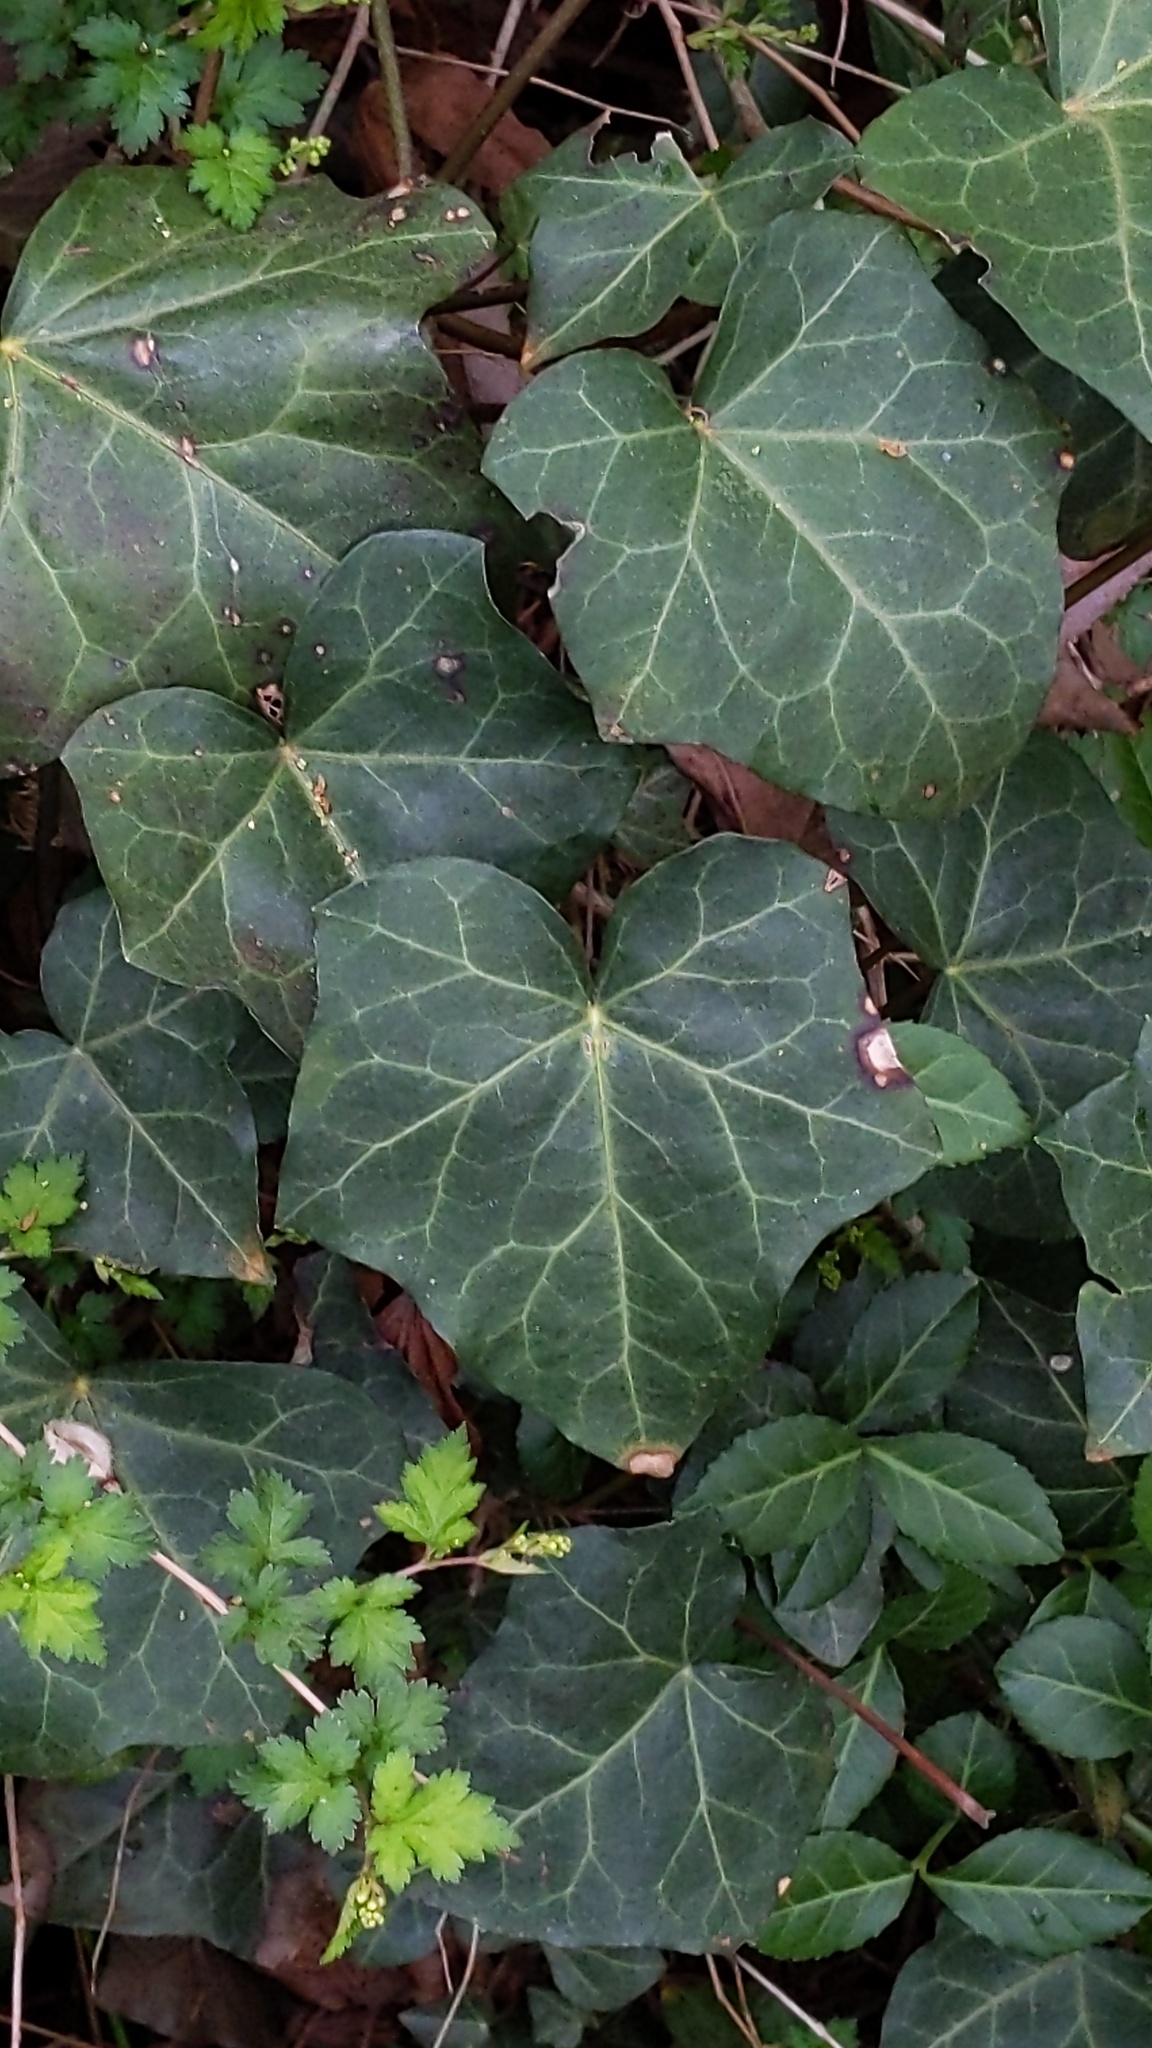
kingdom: Plantae
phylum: Tracheophyta
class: Magnoliopsida
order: Apiales
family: Araliaceae
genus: Hedera
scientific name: Hedera helix
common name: Ivy
